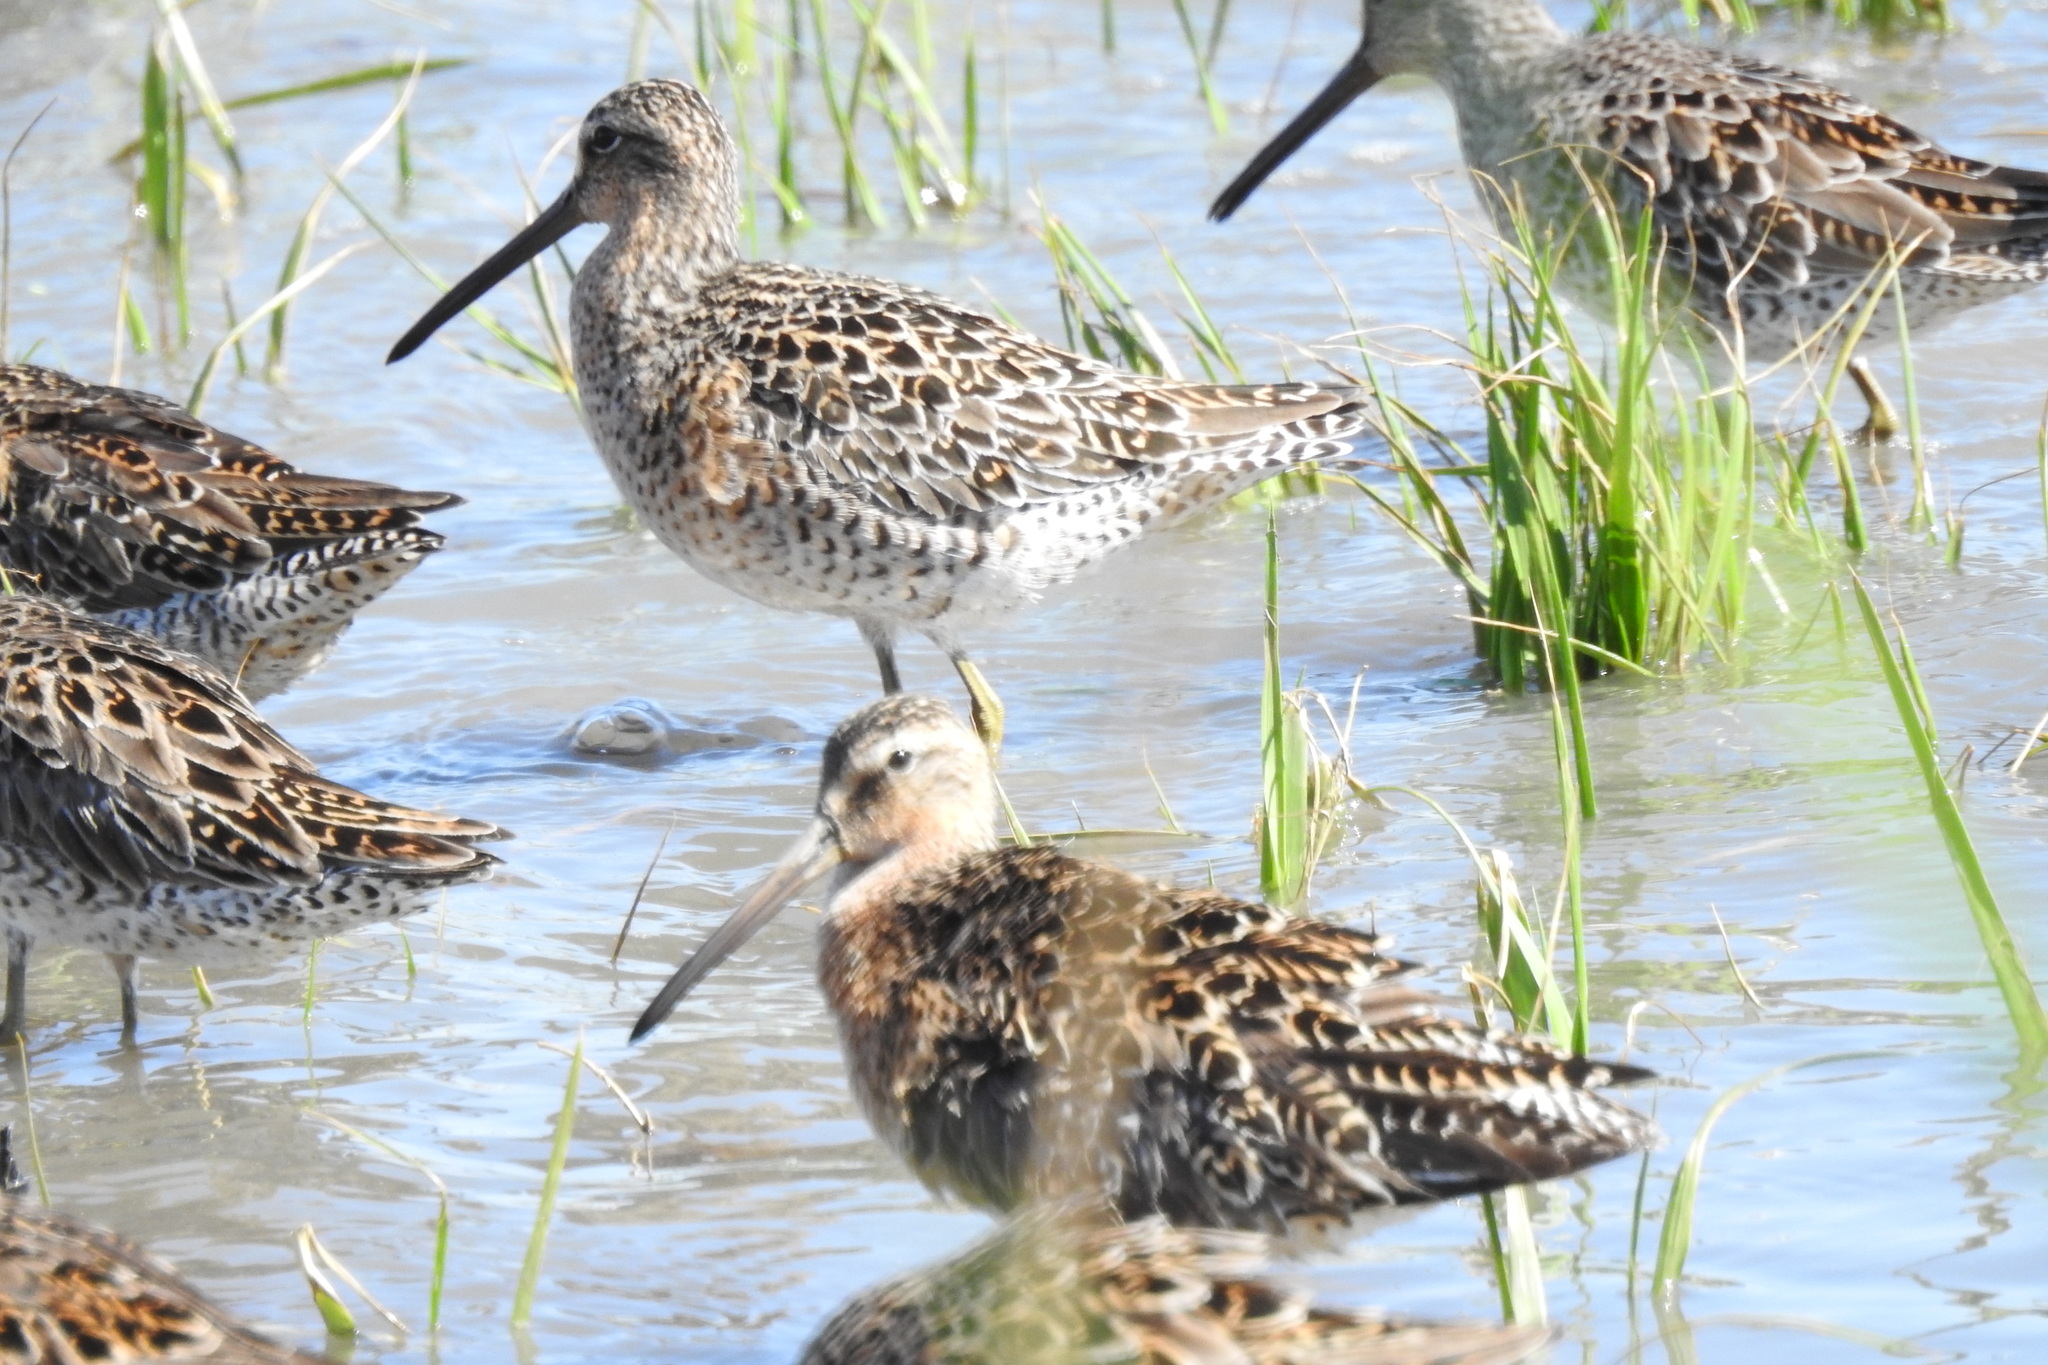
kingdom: Animalia
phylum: Chordata
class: Aves
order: Charadriiformes
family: Scolopacidae
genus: Limnodromus
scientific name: Limnodromus griseus
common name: Short-billed dowitcher
